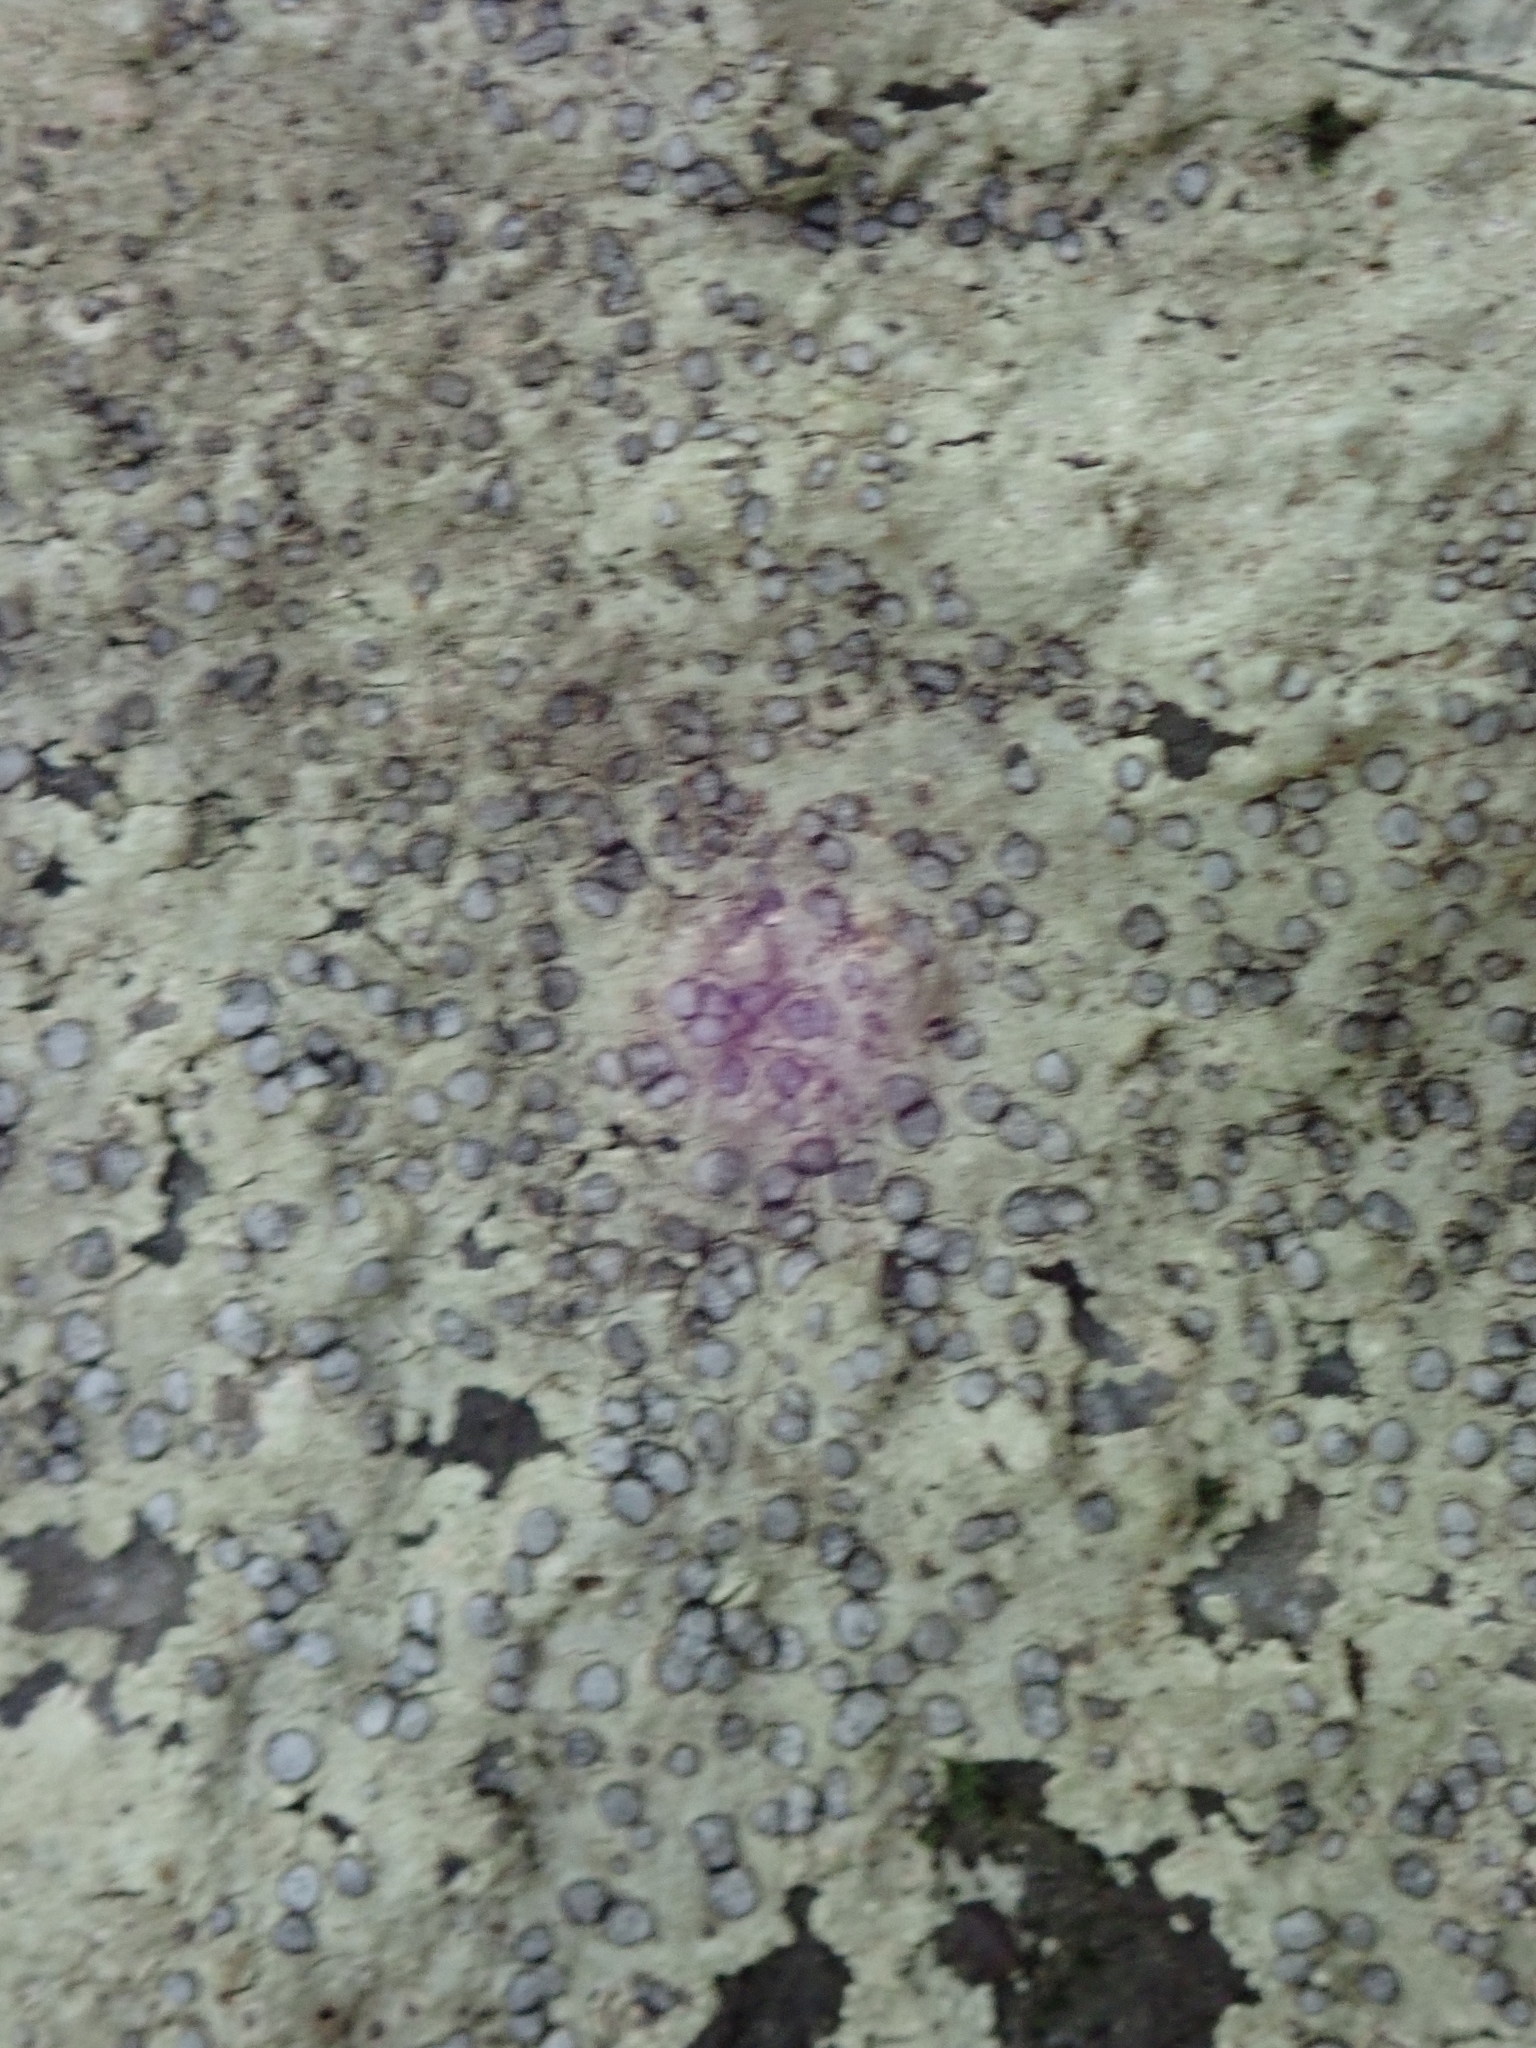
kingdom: Fungi
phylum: Ascomycota
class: Lecanoromycetes
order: Lecideales
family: Lecideaceae
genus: Porpidia
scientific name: Porpidia albocaerulescens
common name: Smokey-eyed boulder lichen
